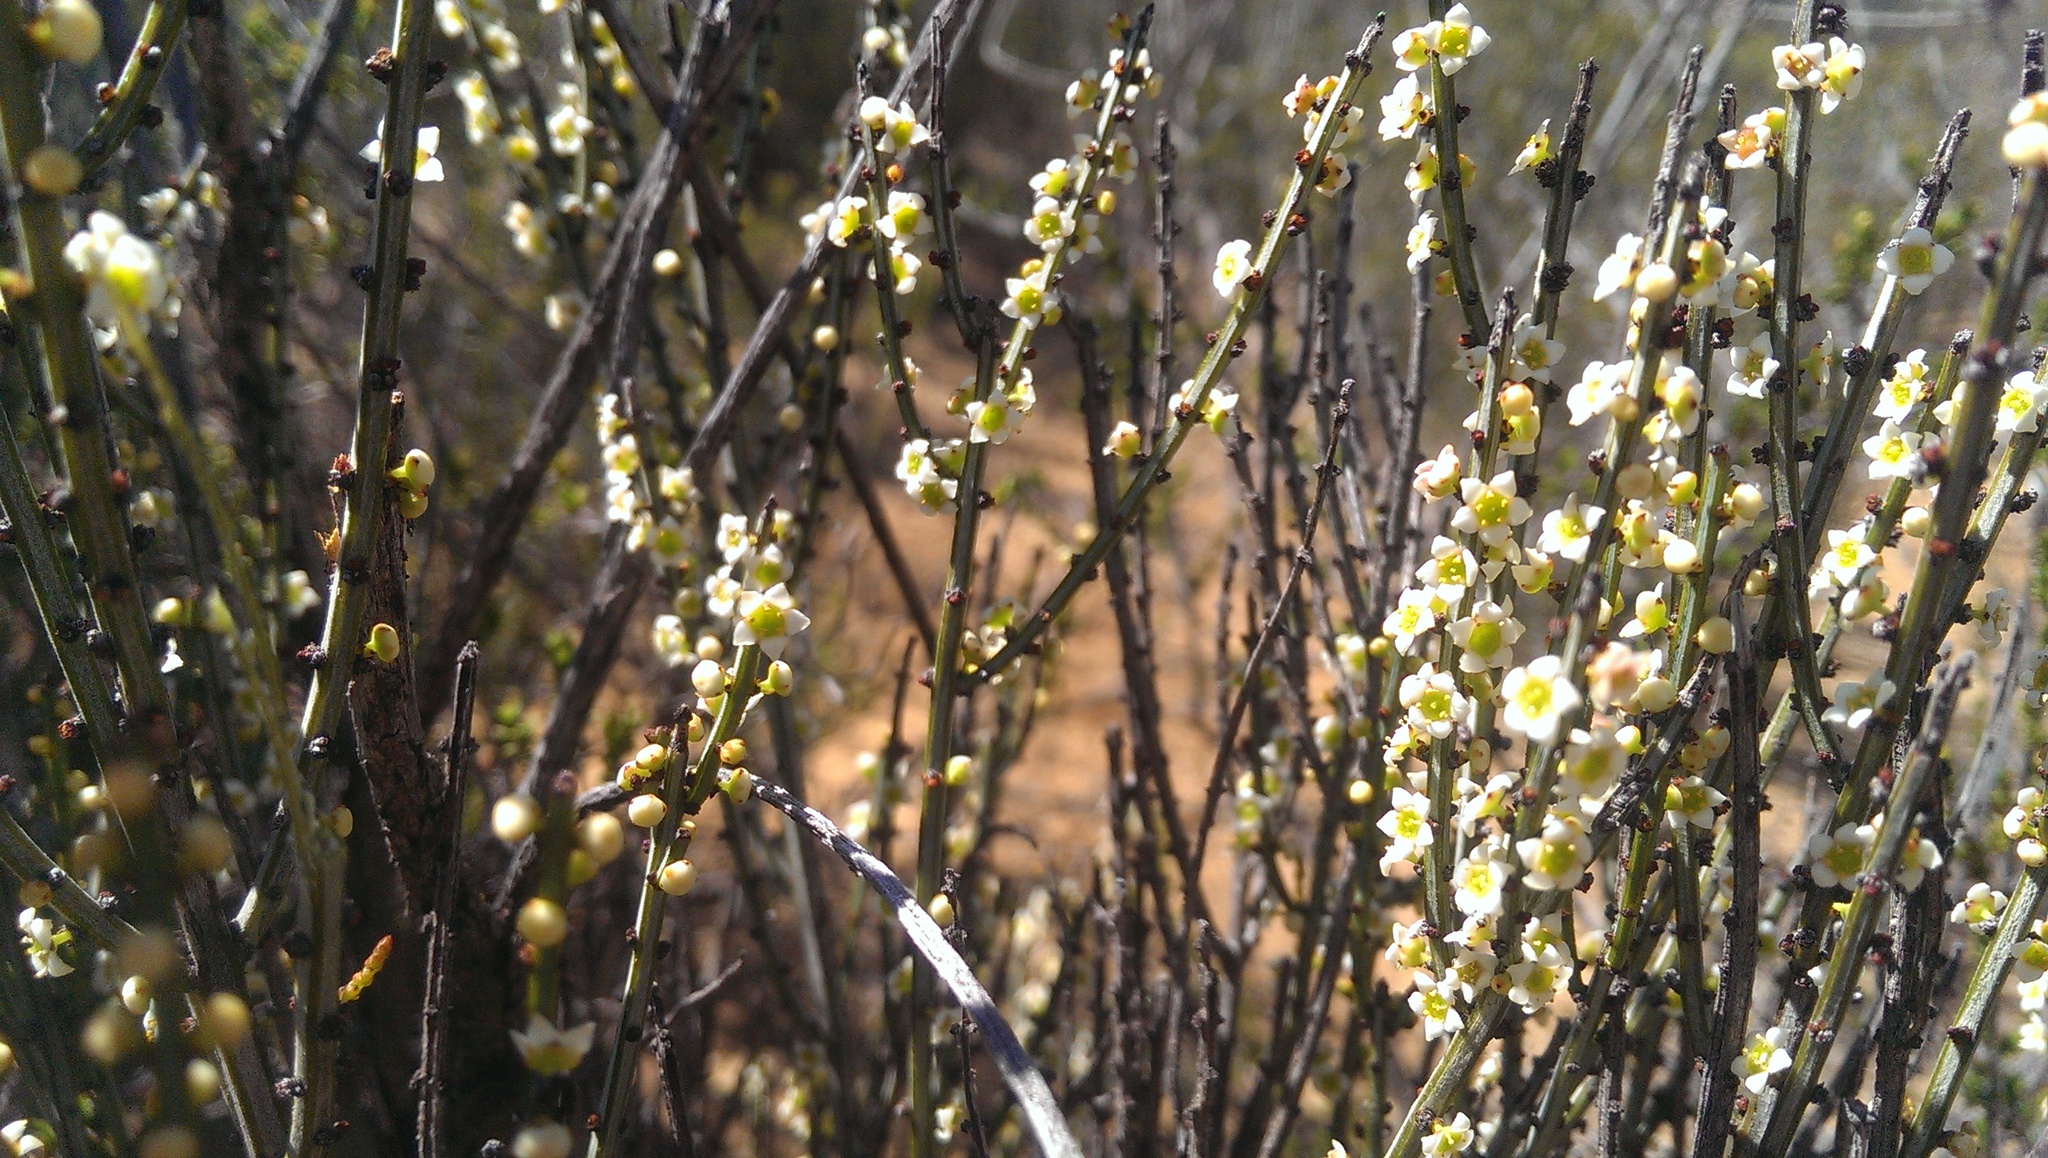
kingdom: Plantae
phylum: Tracheophyta
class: Magnoliopsida
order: Celastrales
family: Celastraceae
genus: Psammomoya
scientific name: Psammomoya choretroides
